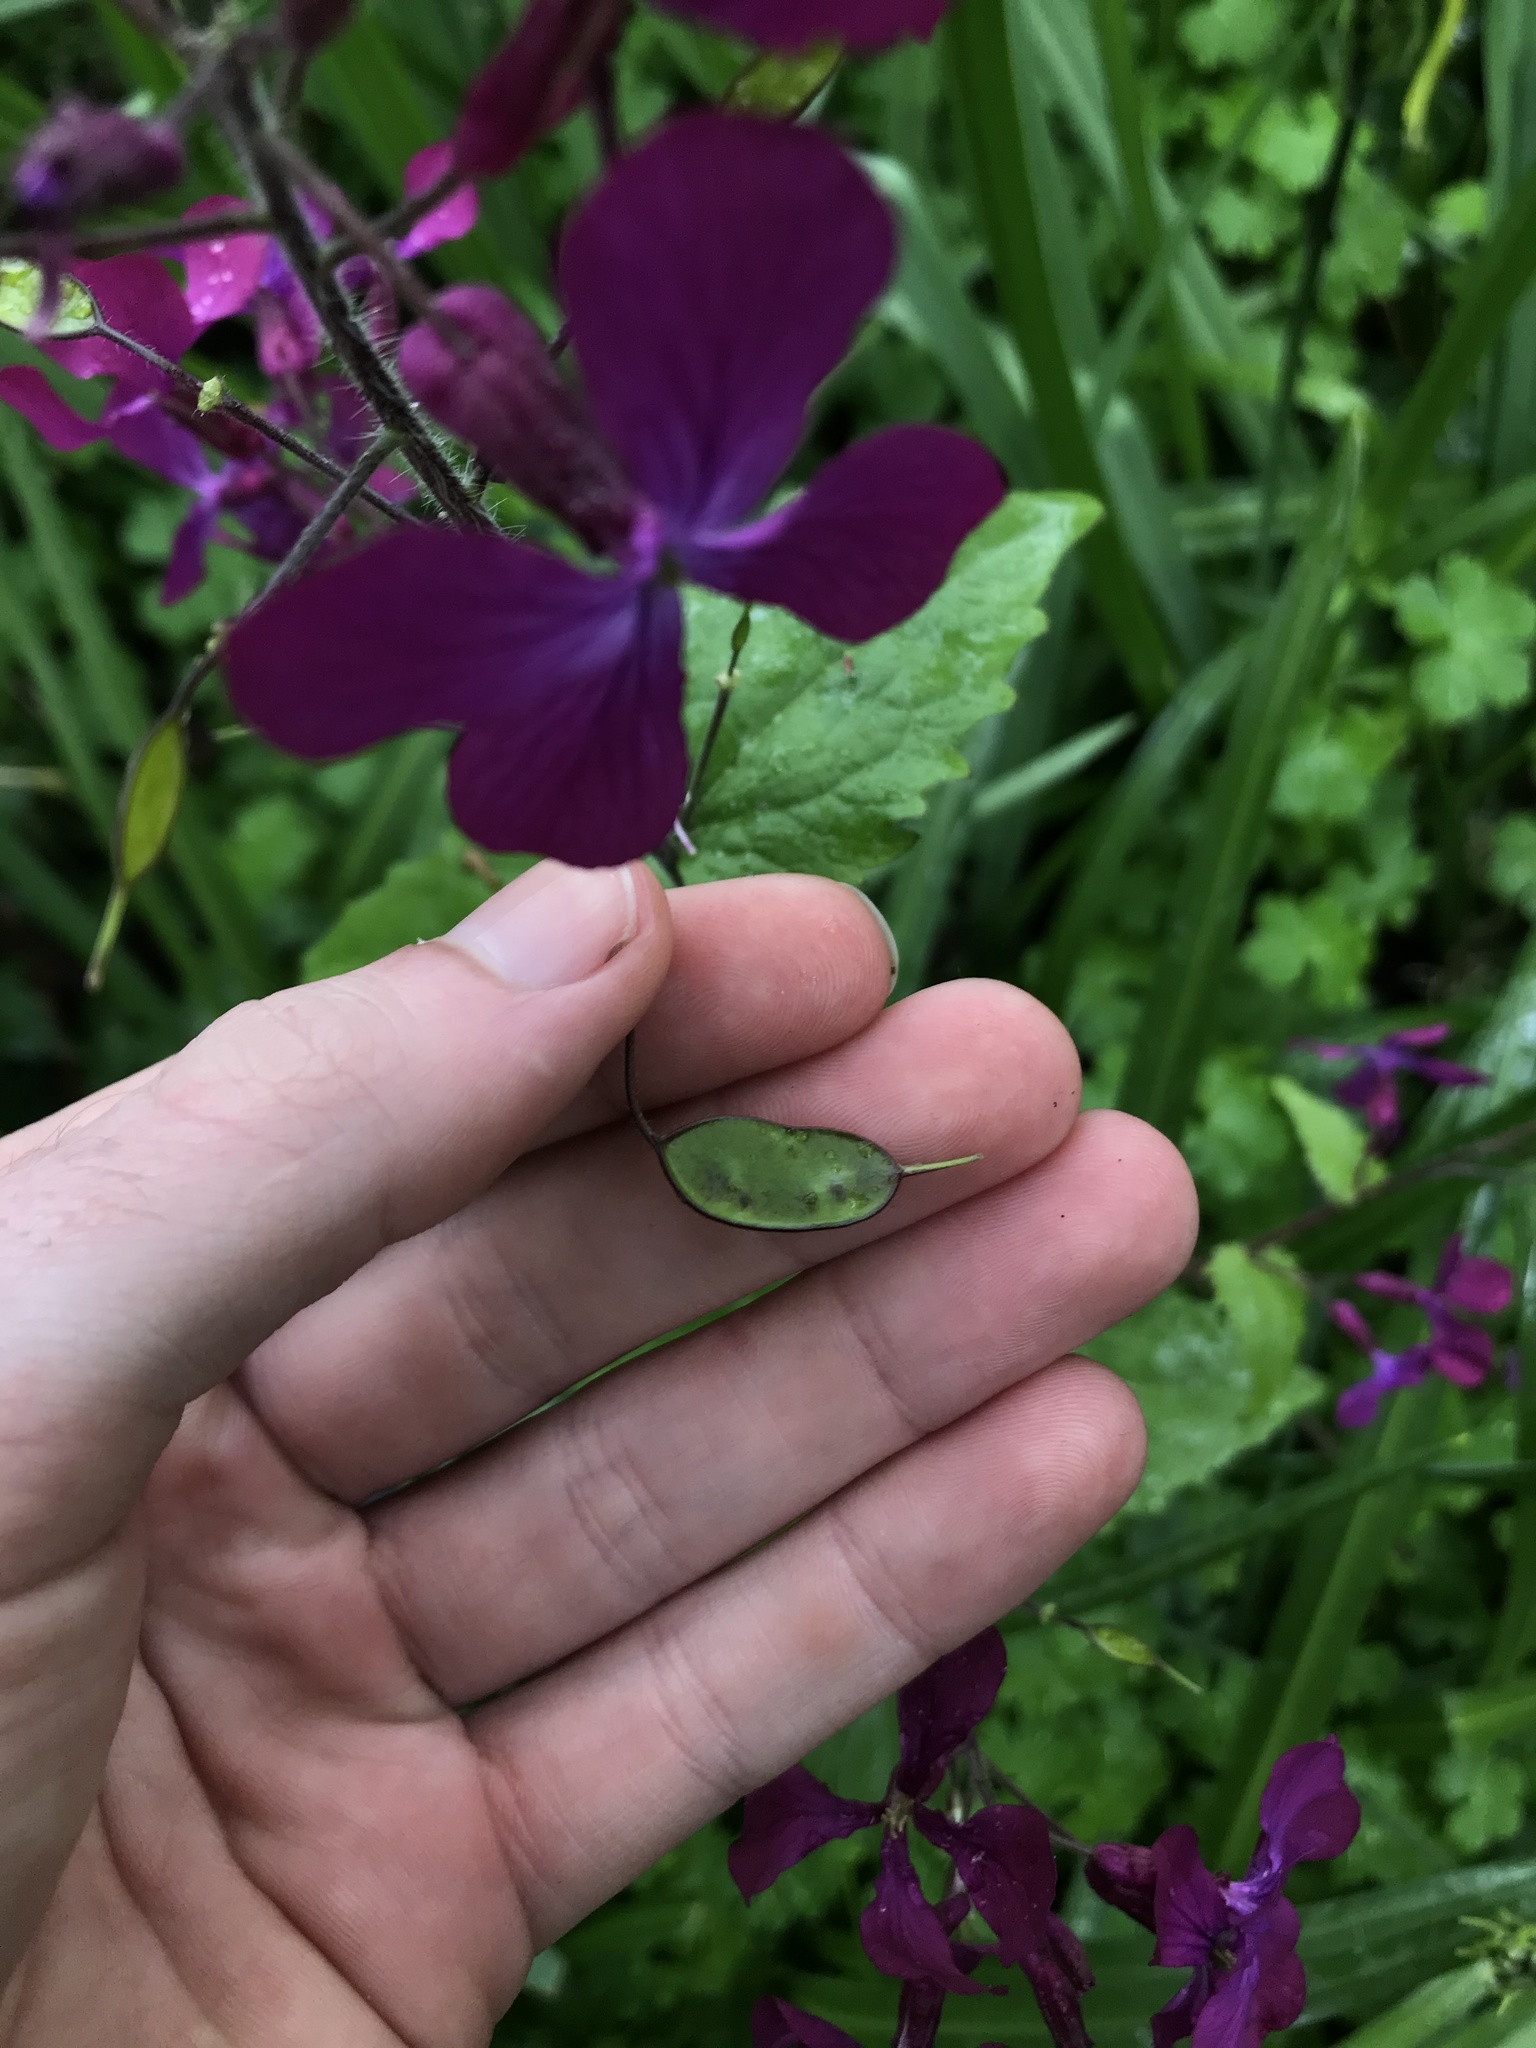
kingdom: Plantae
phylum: Tracheophyta
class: Magnoliopsida
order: Brassicales
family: Brassicaceae
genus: Lunaria
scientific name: Lunaria annua
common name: Honesty
